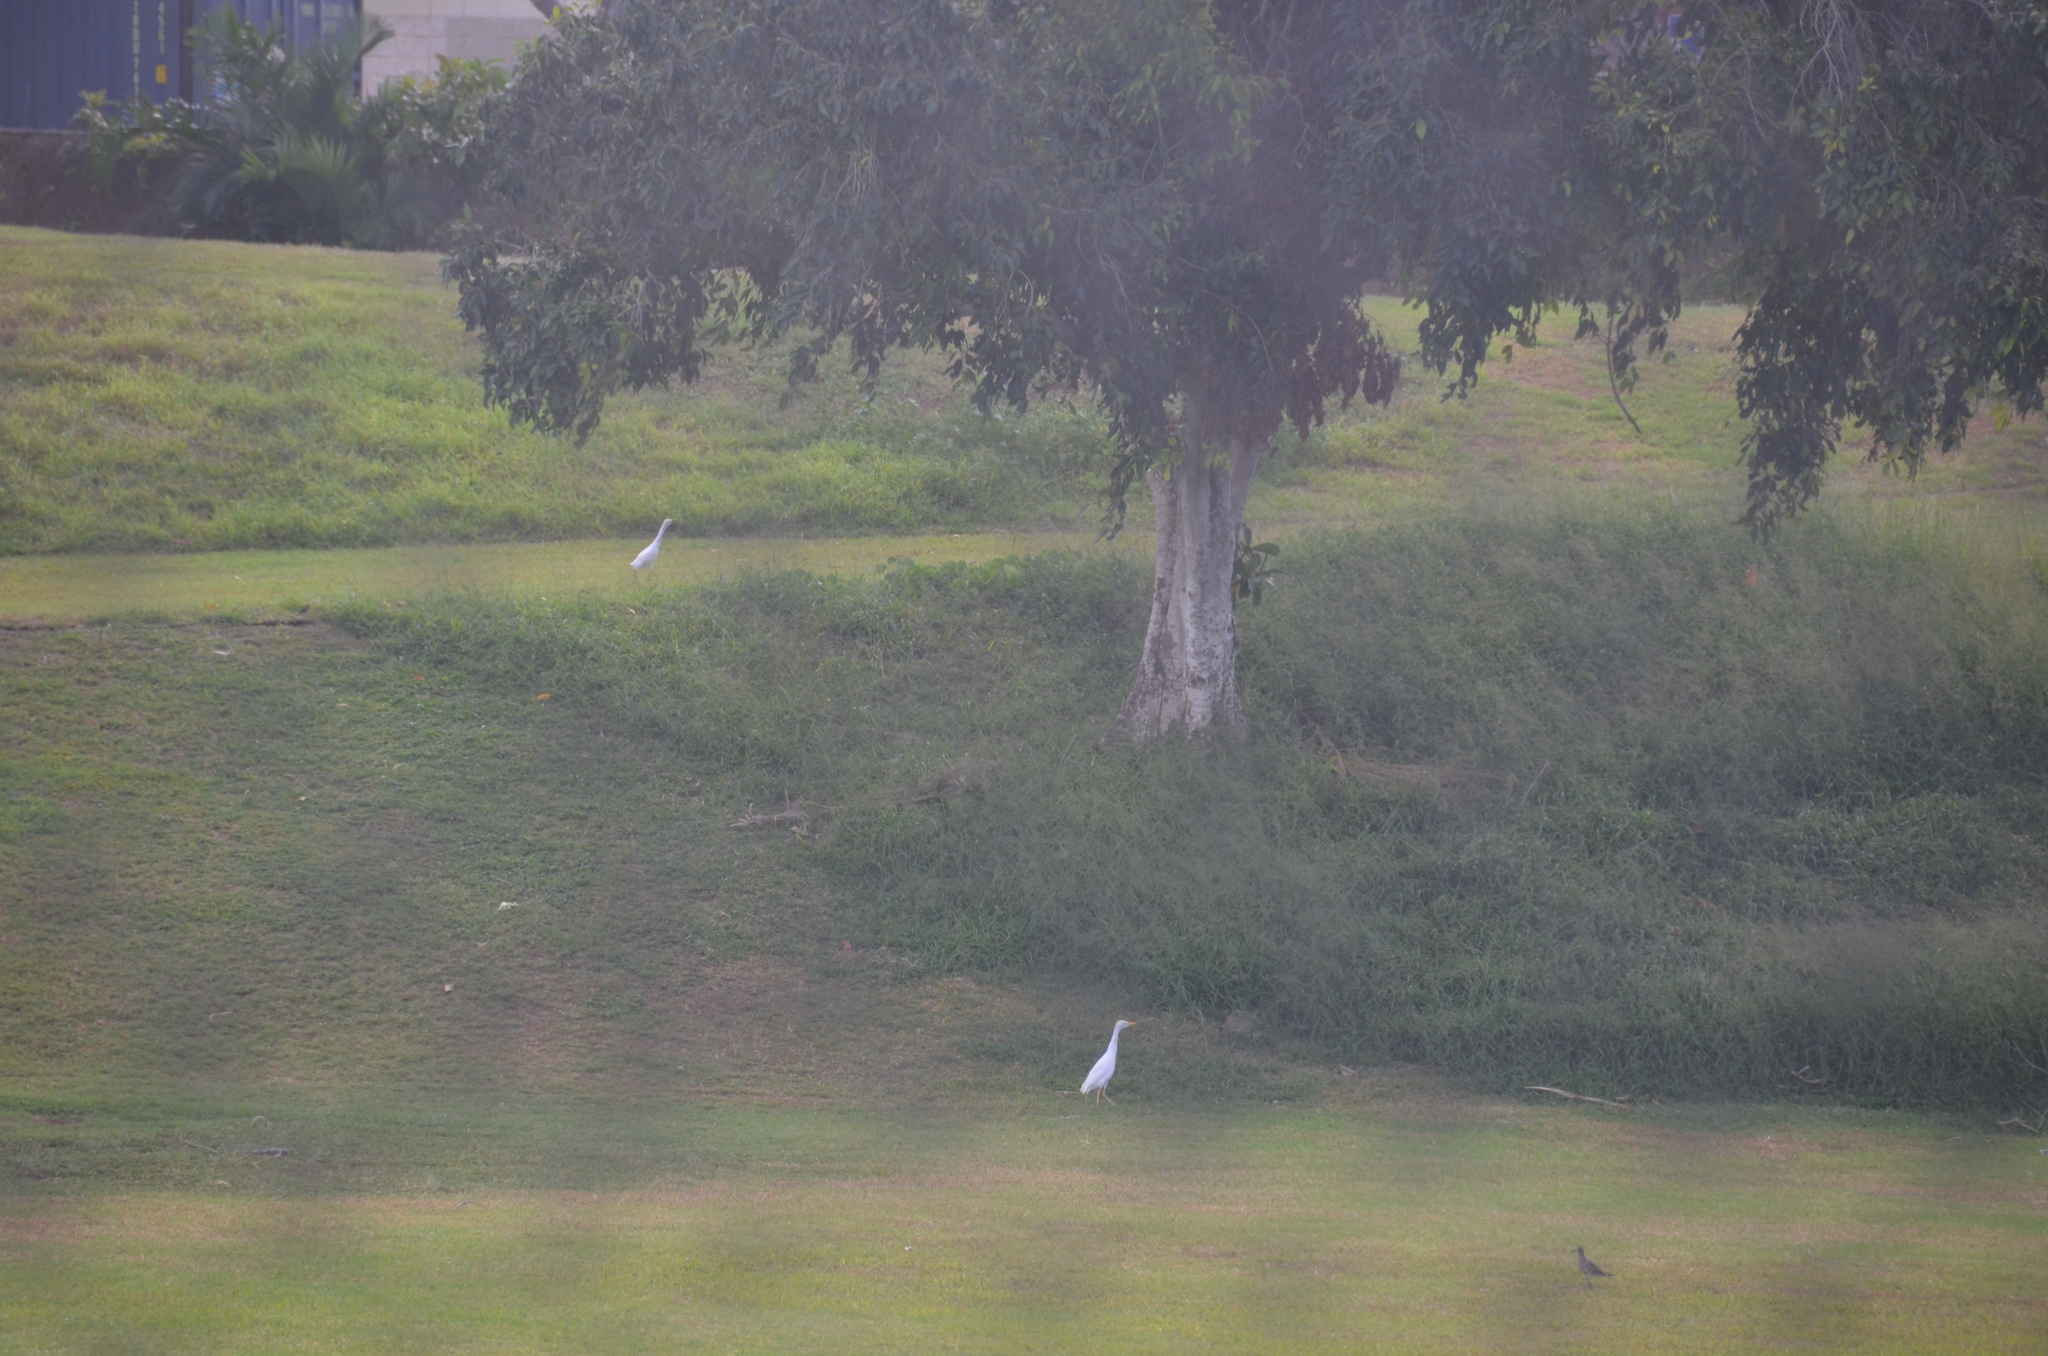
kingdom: Animalia
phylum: Chordata
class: Aves
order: Charadriiformes
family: Charadriidae
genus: Pluvialis
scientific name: Pluvialis fulva
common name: Pacific golden plover
